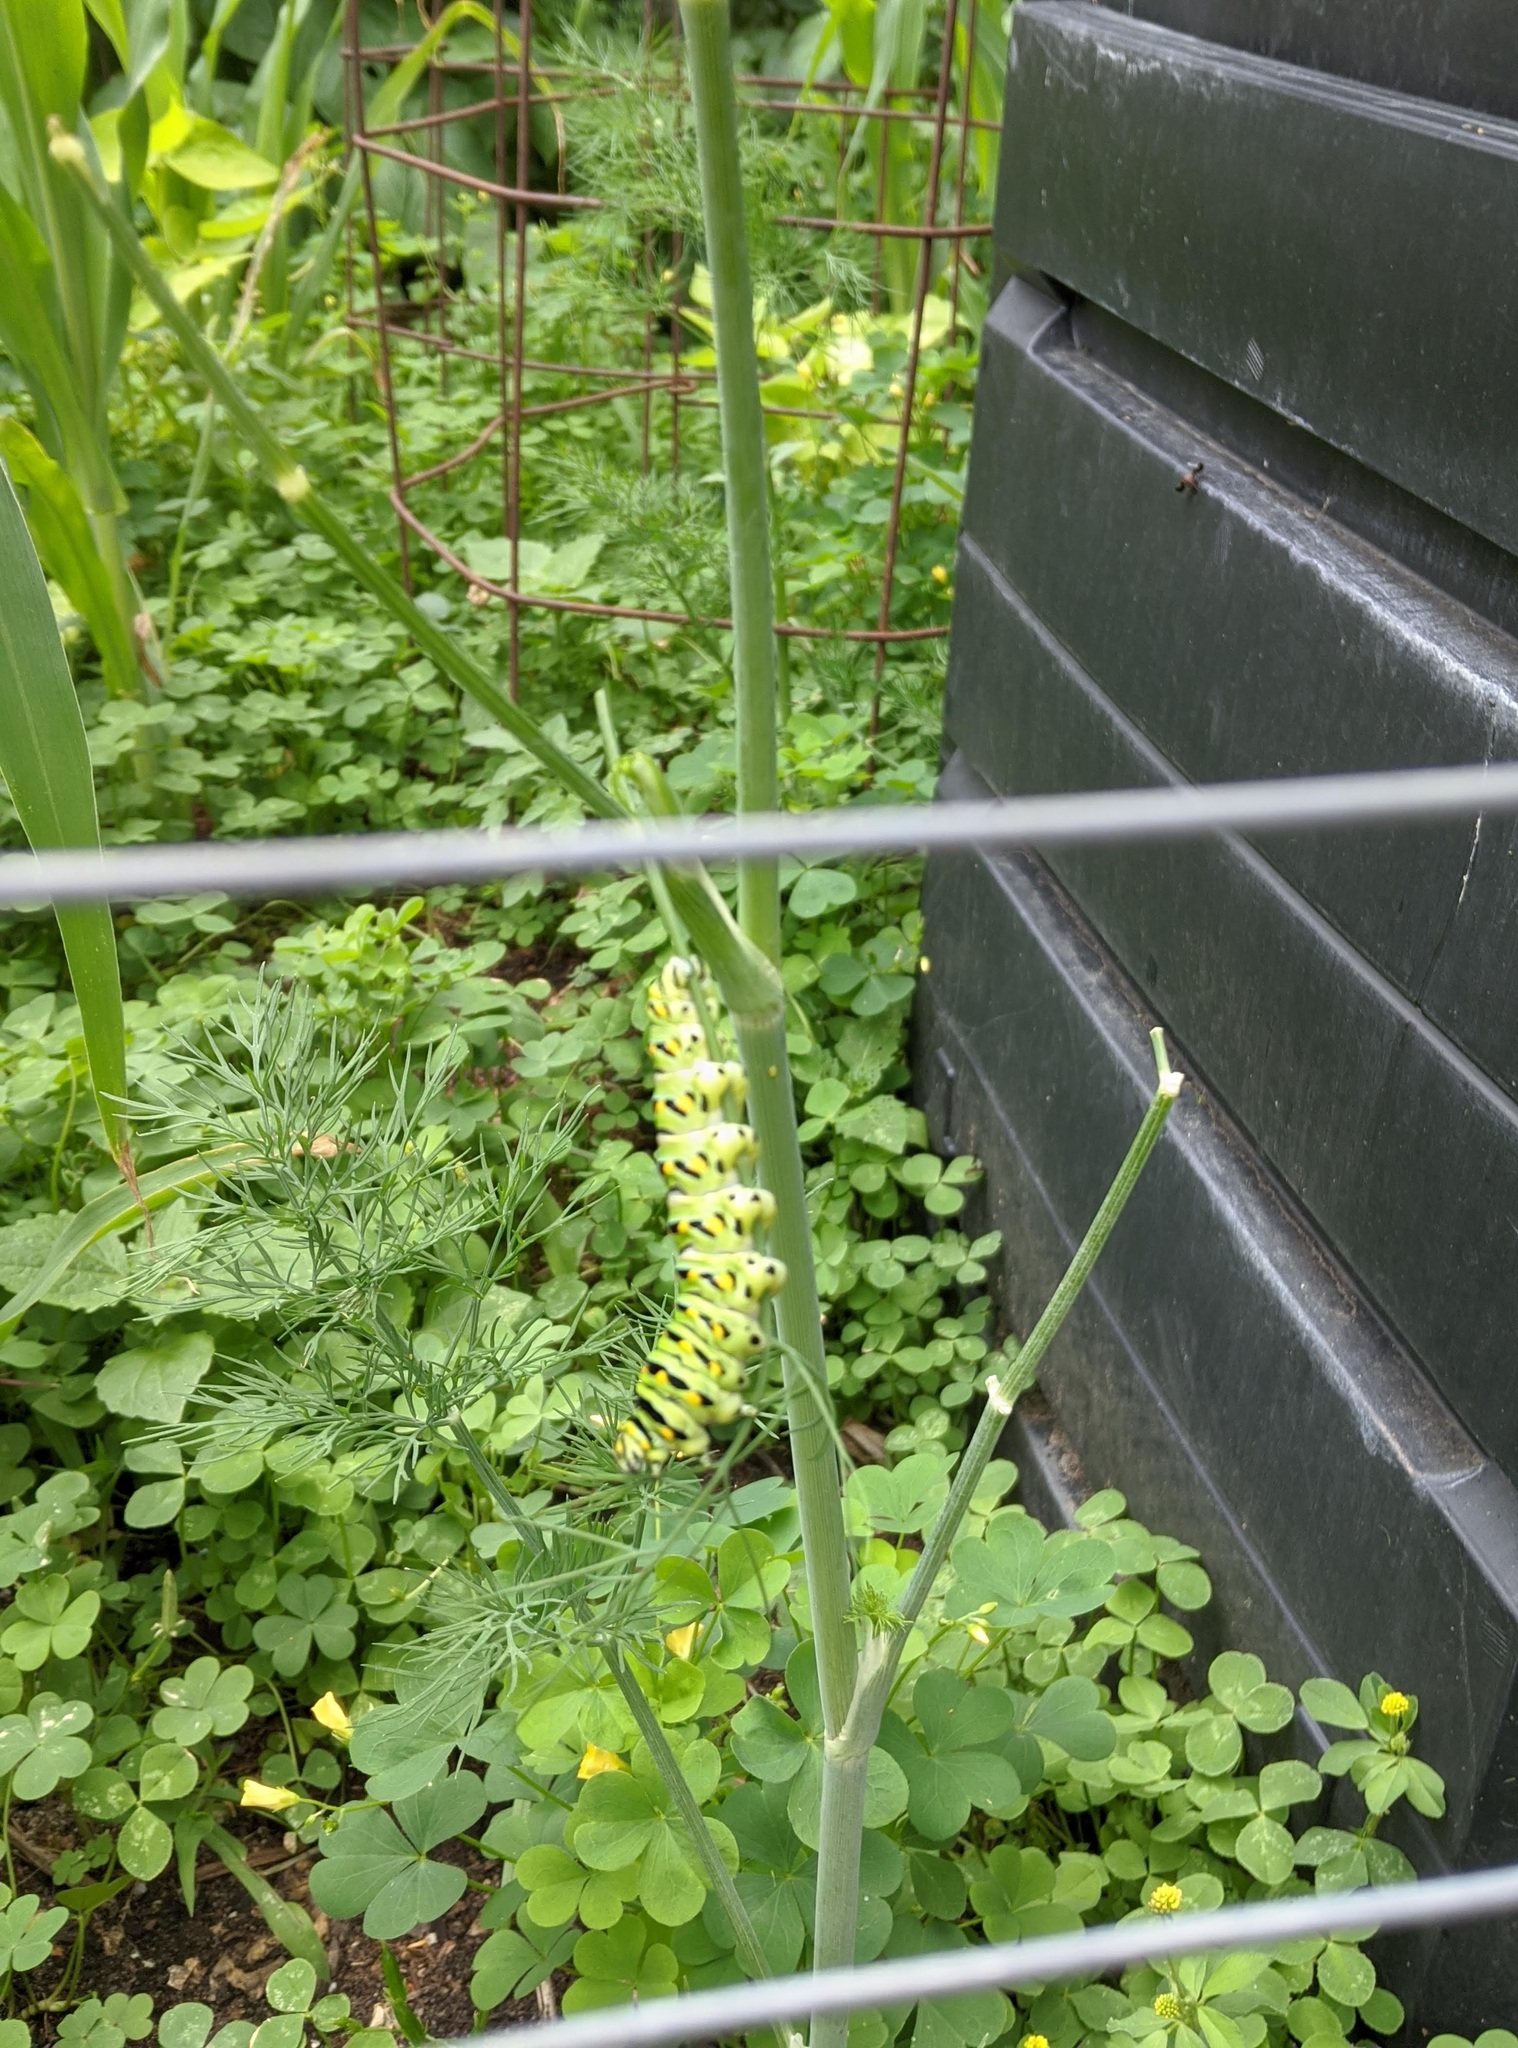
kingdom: Animalia
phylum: Arthropoda
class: Insecta
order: Lepidoptera
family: Papilionidae
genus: Papilio
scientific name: Papilio polyxenes
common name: Black swallowtail
